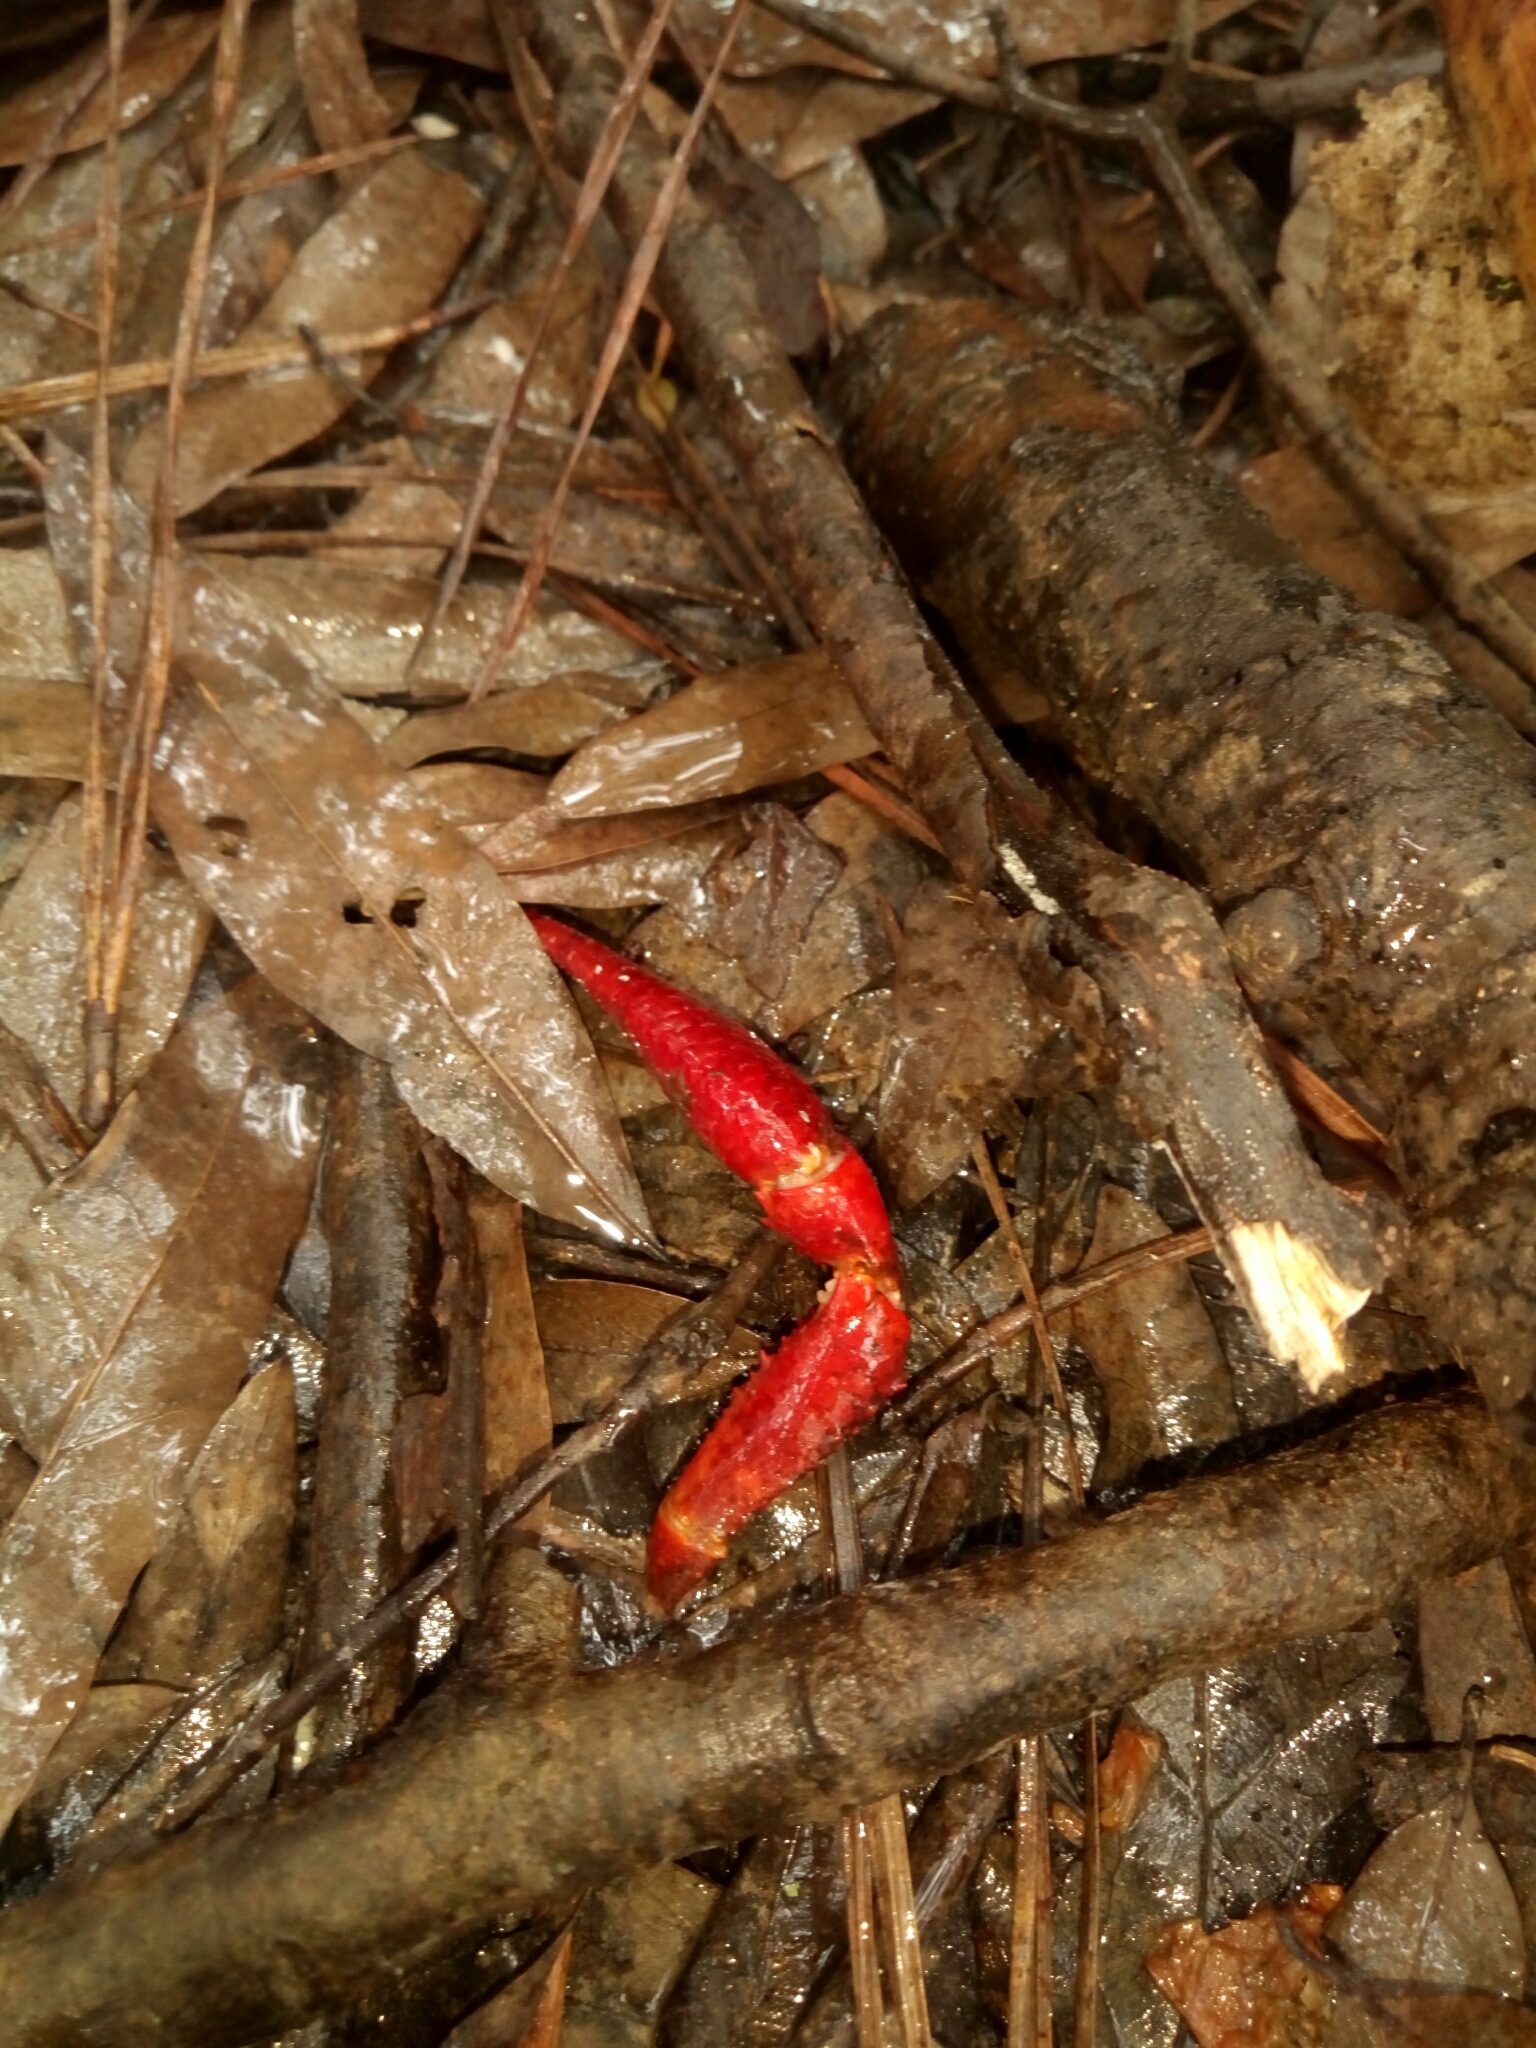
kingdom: Animalia
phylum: Arthropoda
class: Malacostraca
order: Decapoda
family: Cambaridae
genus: Procambarus
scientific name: Procambarus clarkii
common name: Red swamp crayfish
